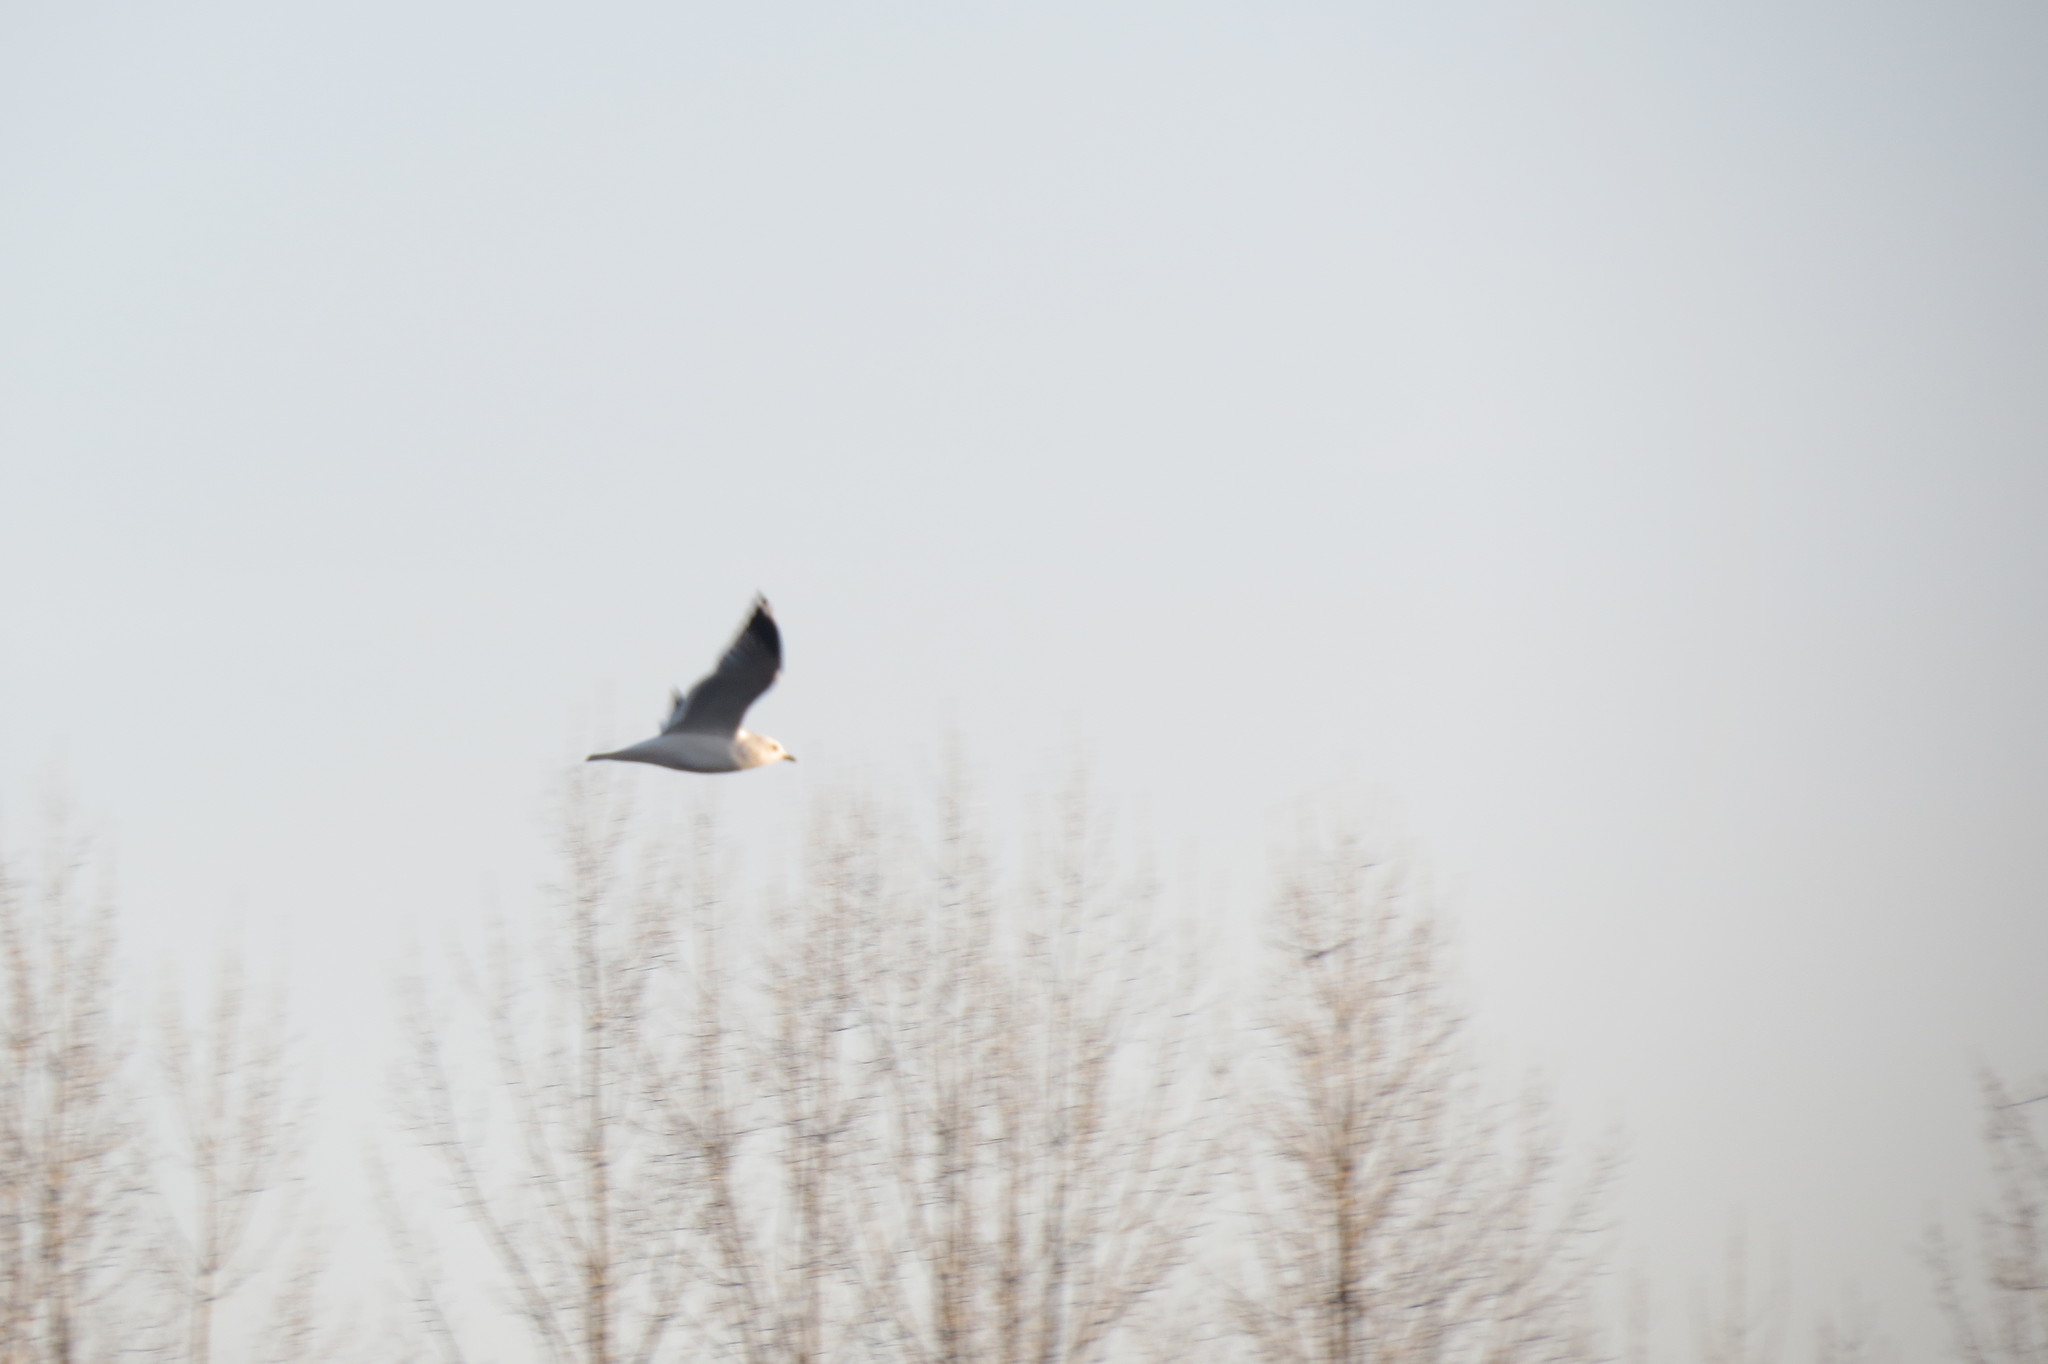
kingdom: Animalia
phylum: Chordata
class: Aves
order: Charadriiformes
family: Laridae
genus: Larus
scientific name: Larus canus
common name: Mew gull
